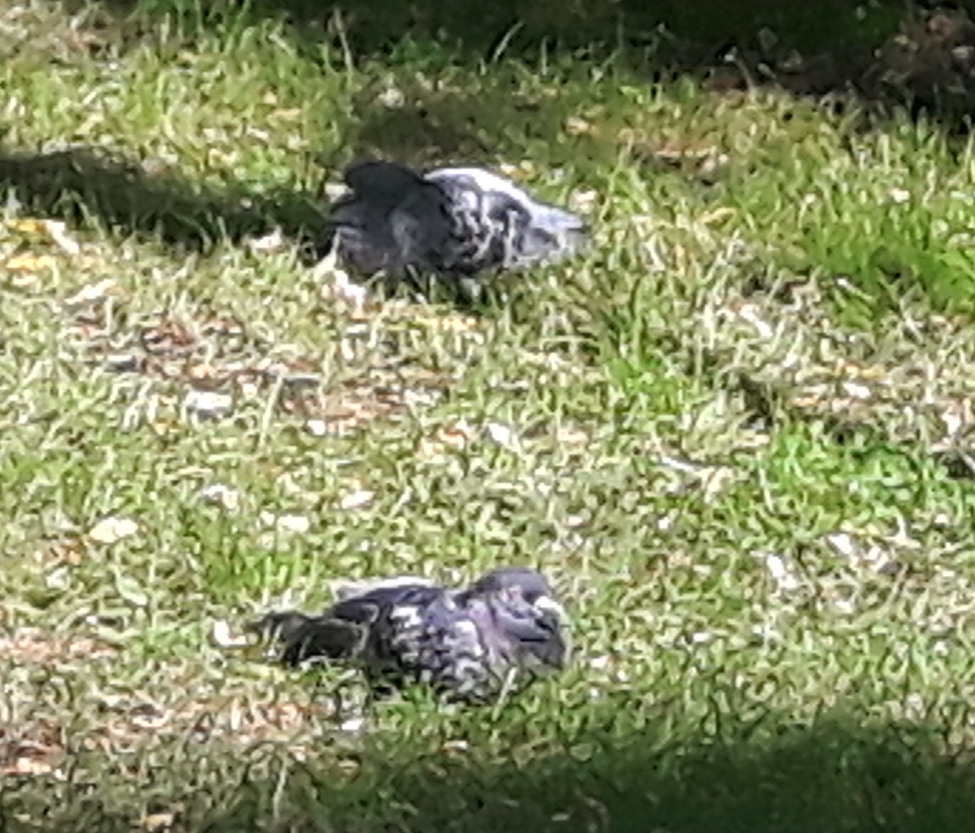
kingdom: Animalia
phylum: Chordata
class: Aves
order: Columbiformes
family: Columbidae
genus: Columba
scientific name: Columba livia
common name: Rock pigeon
